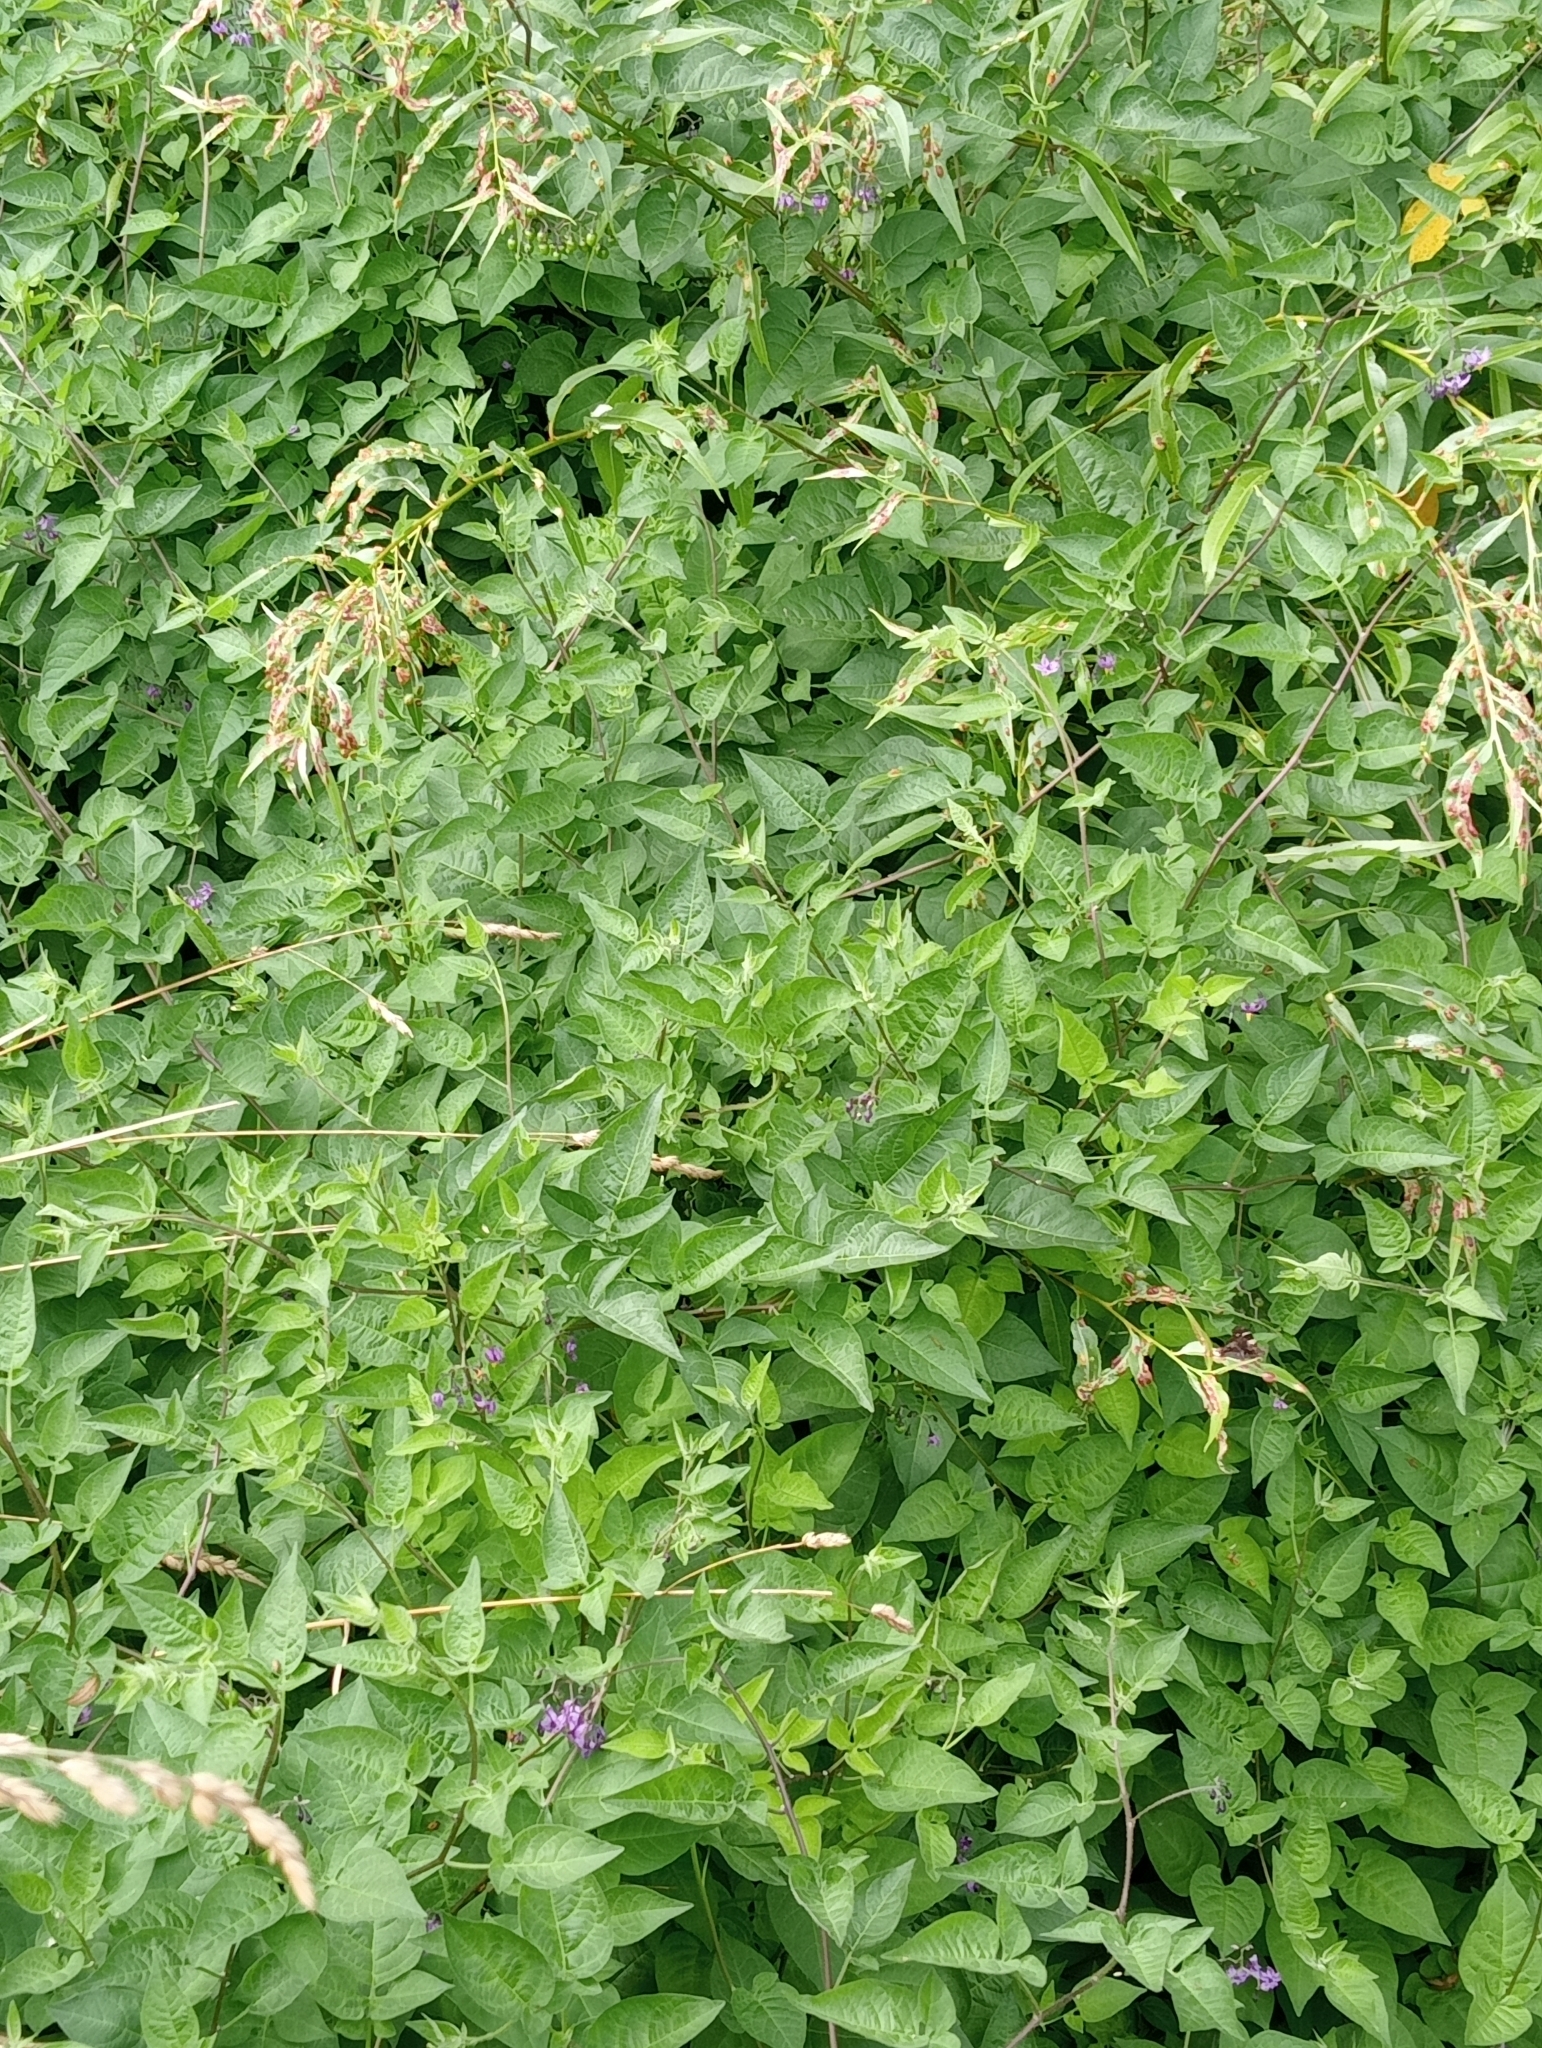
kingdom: Plantae
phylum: Tracheophyta
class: Magnoliopsida
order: Solanales
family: Solanaceae
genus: Solanum
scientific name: Solanum dulcamara
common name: Climbing nightshade
